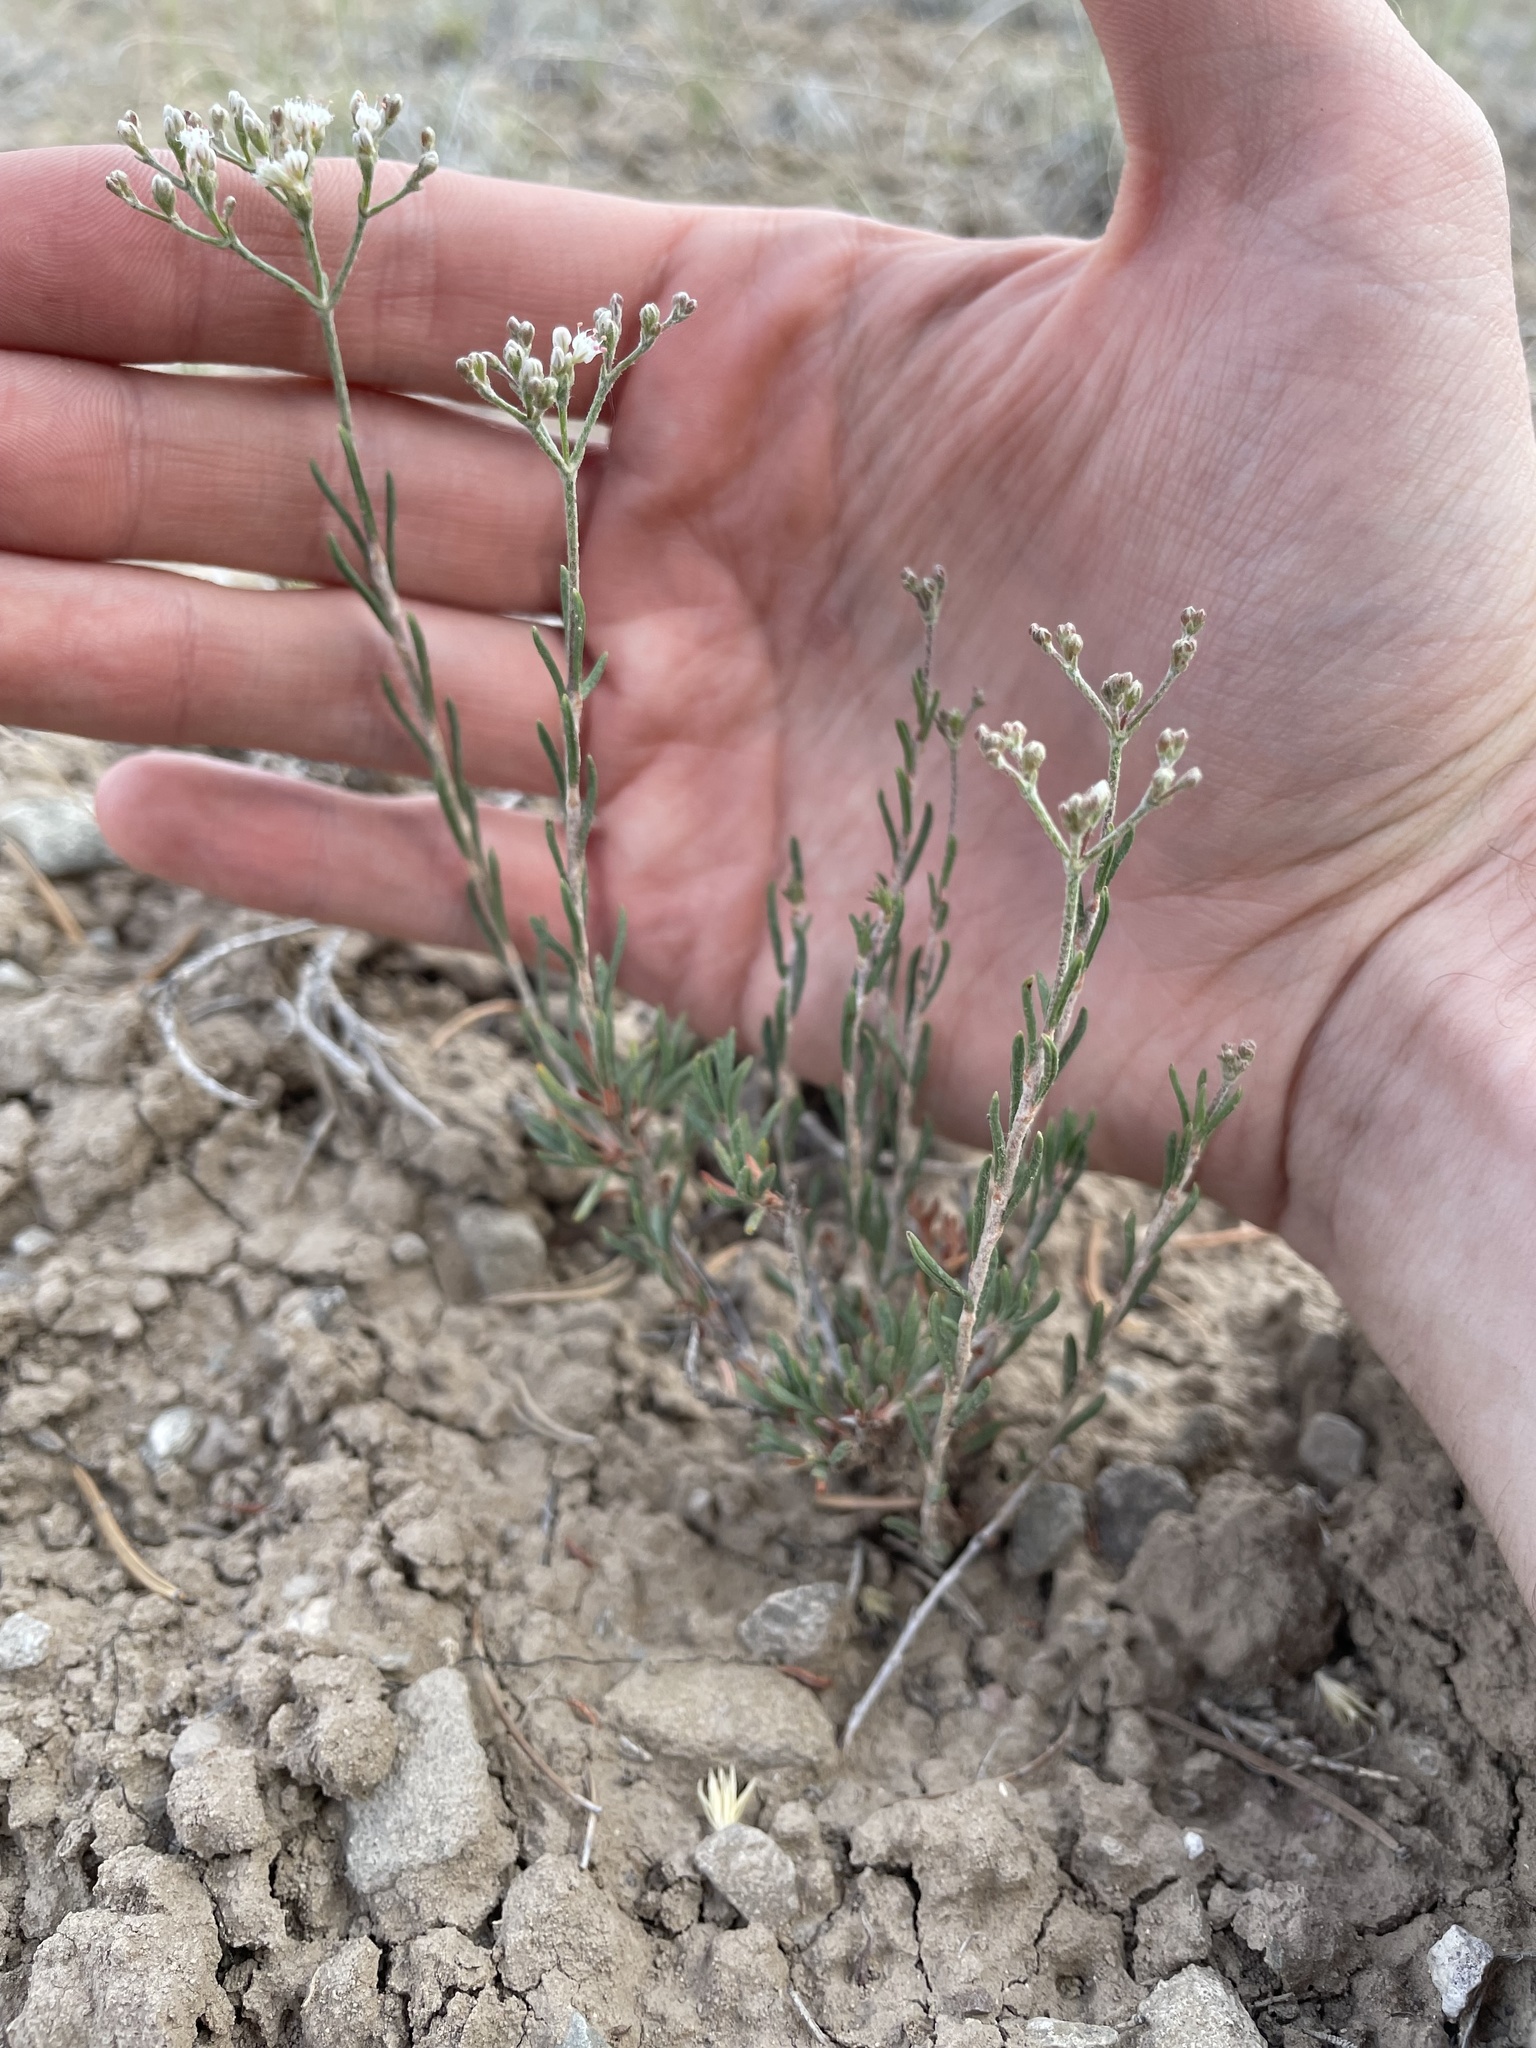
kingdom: Plantae
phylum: Tracheophyta
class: Magnoliopsida
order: Caryophyllales
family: Polygonaceae
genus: Eriogonum
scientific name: Eriogonum leptophyllum
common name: Slender-leaf wild buckwheat
